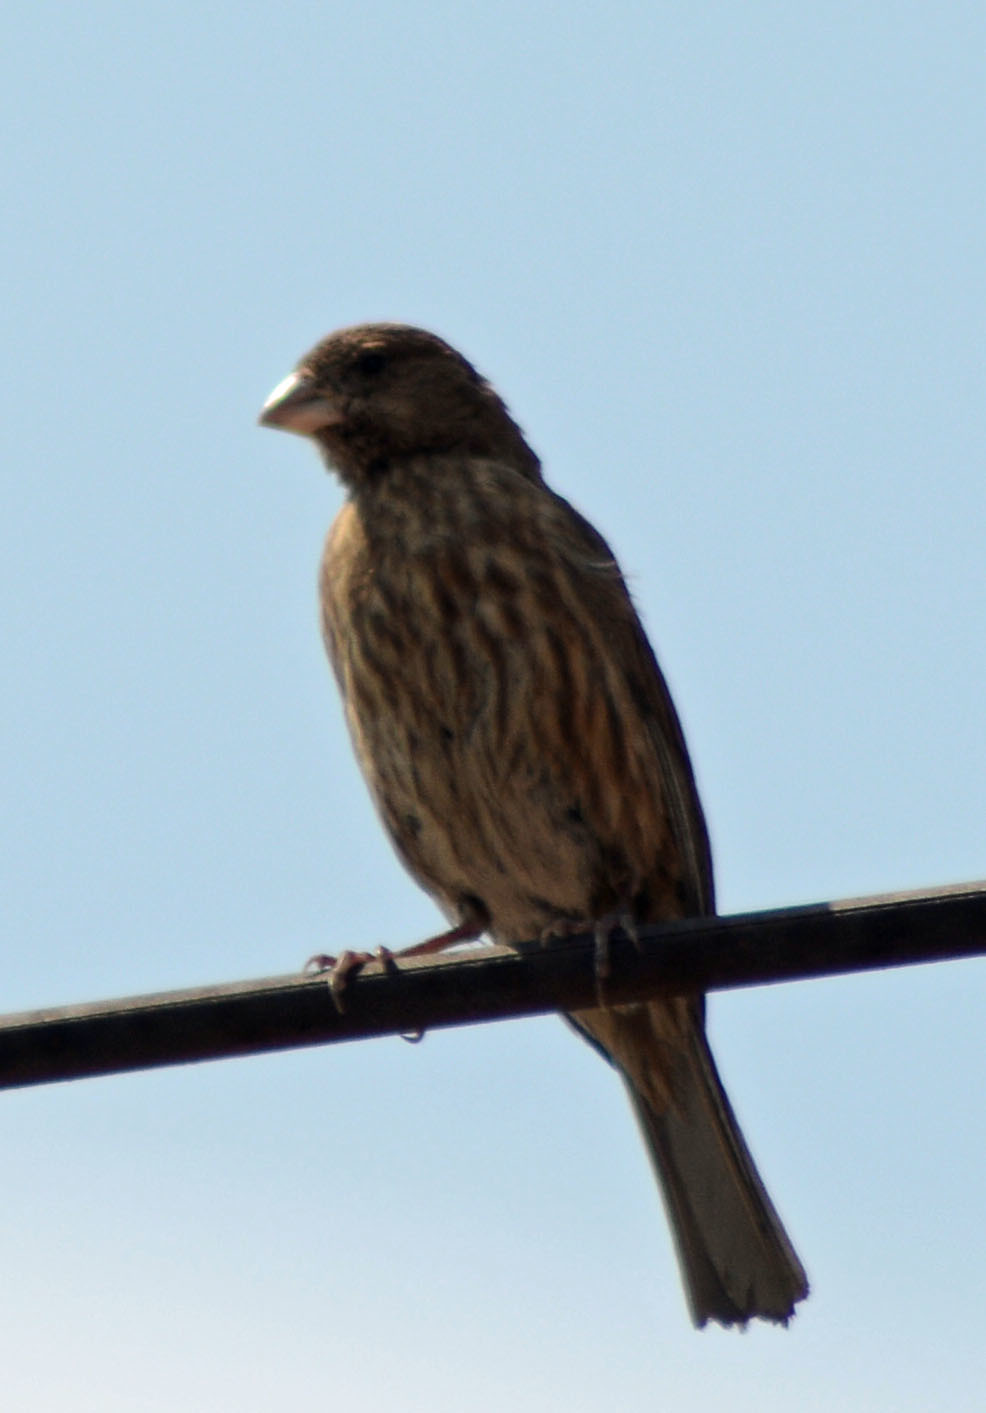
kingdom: Animalia
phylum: Chordata
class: Aves
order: Passeriformes
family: Fringillidae
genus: Haemorhous
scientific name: Haemorhous mexicanus
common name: House finch
